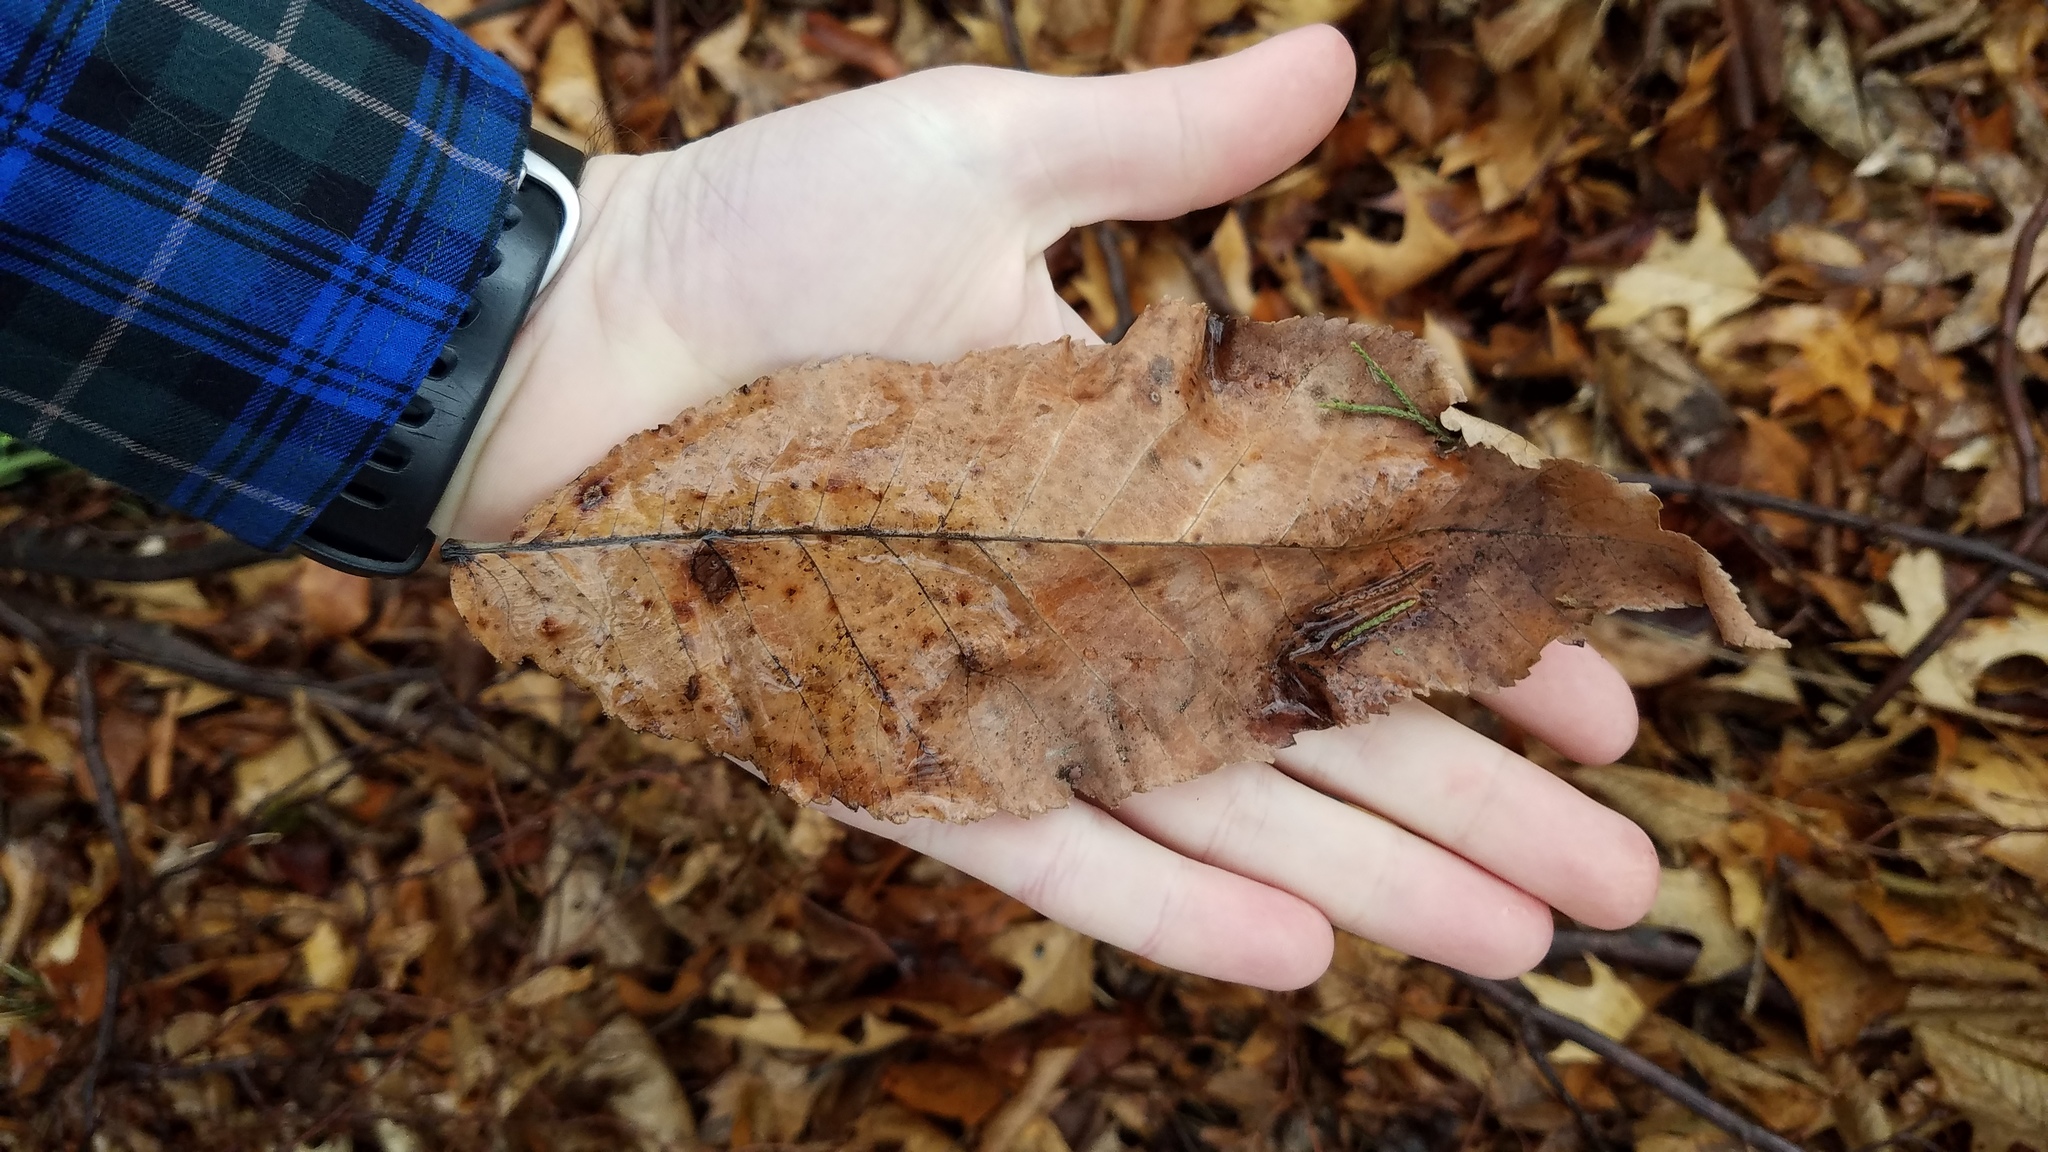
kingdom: Plantae
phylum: Tracheophyta
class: Magnoliopsida
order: Rosales
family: Ulmaceae
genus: Ulmus
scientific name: Ulmus rubra
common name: Slippery elm
